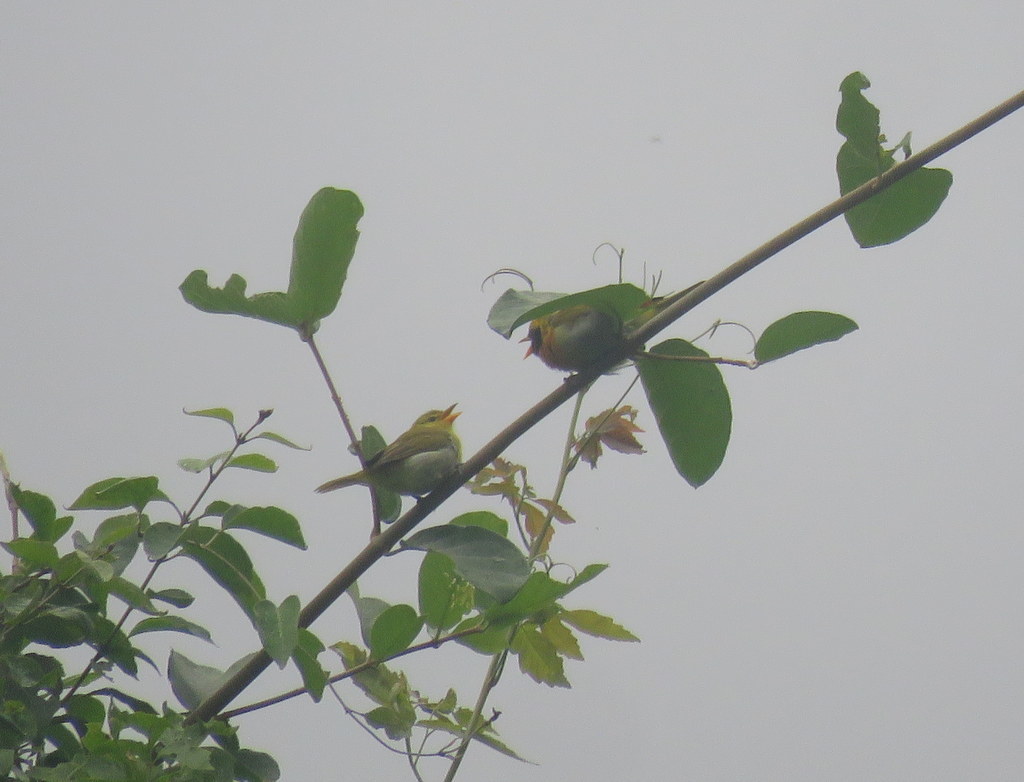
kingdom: Animalia
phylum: Chordata
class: Aves
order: Passeriformes
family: Thraupidae
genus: Hemithraupis
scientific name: Hemithraupis guira
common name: Guira tanager
